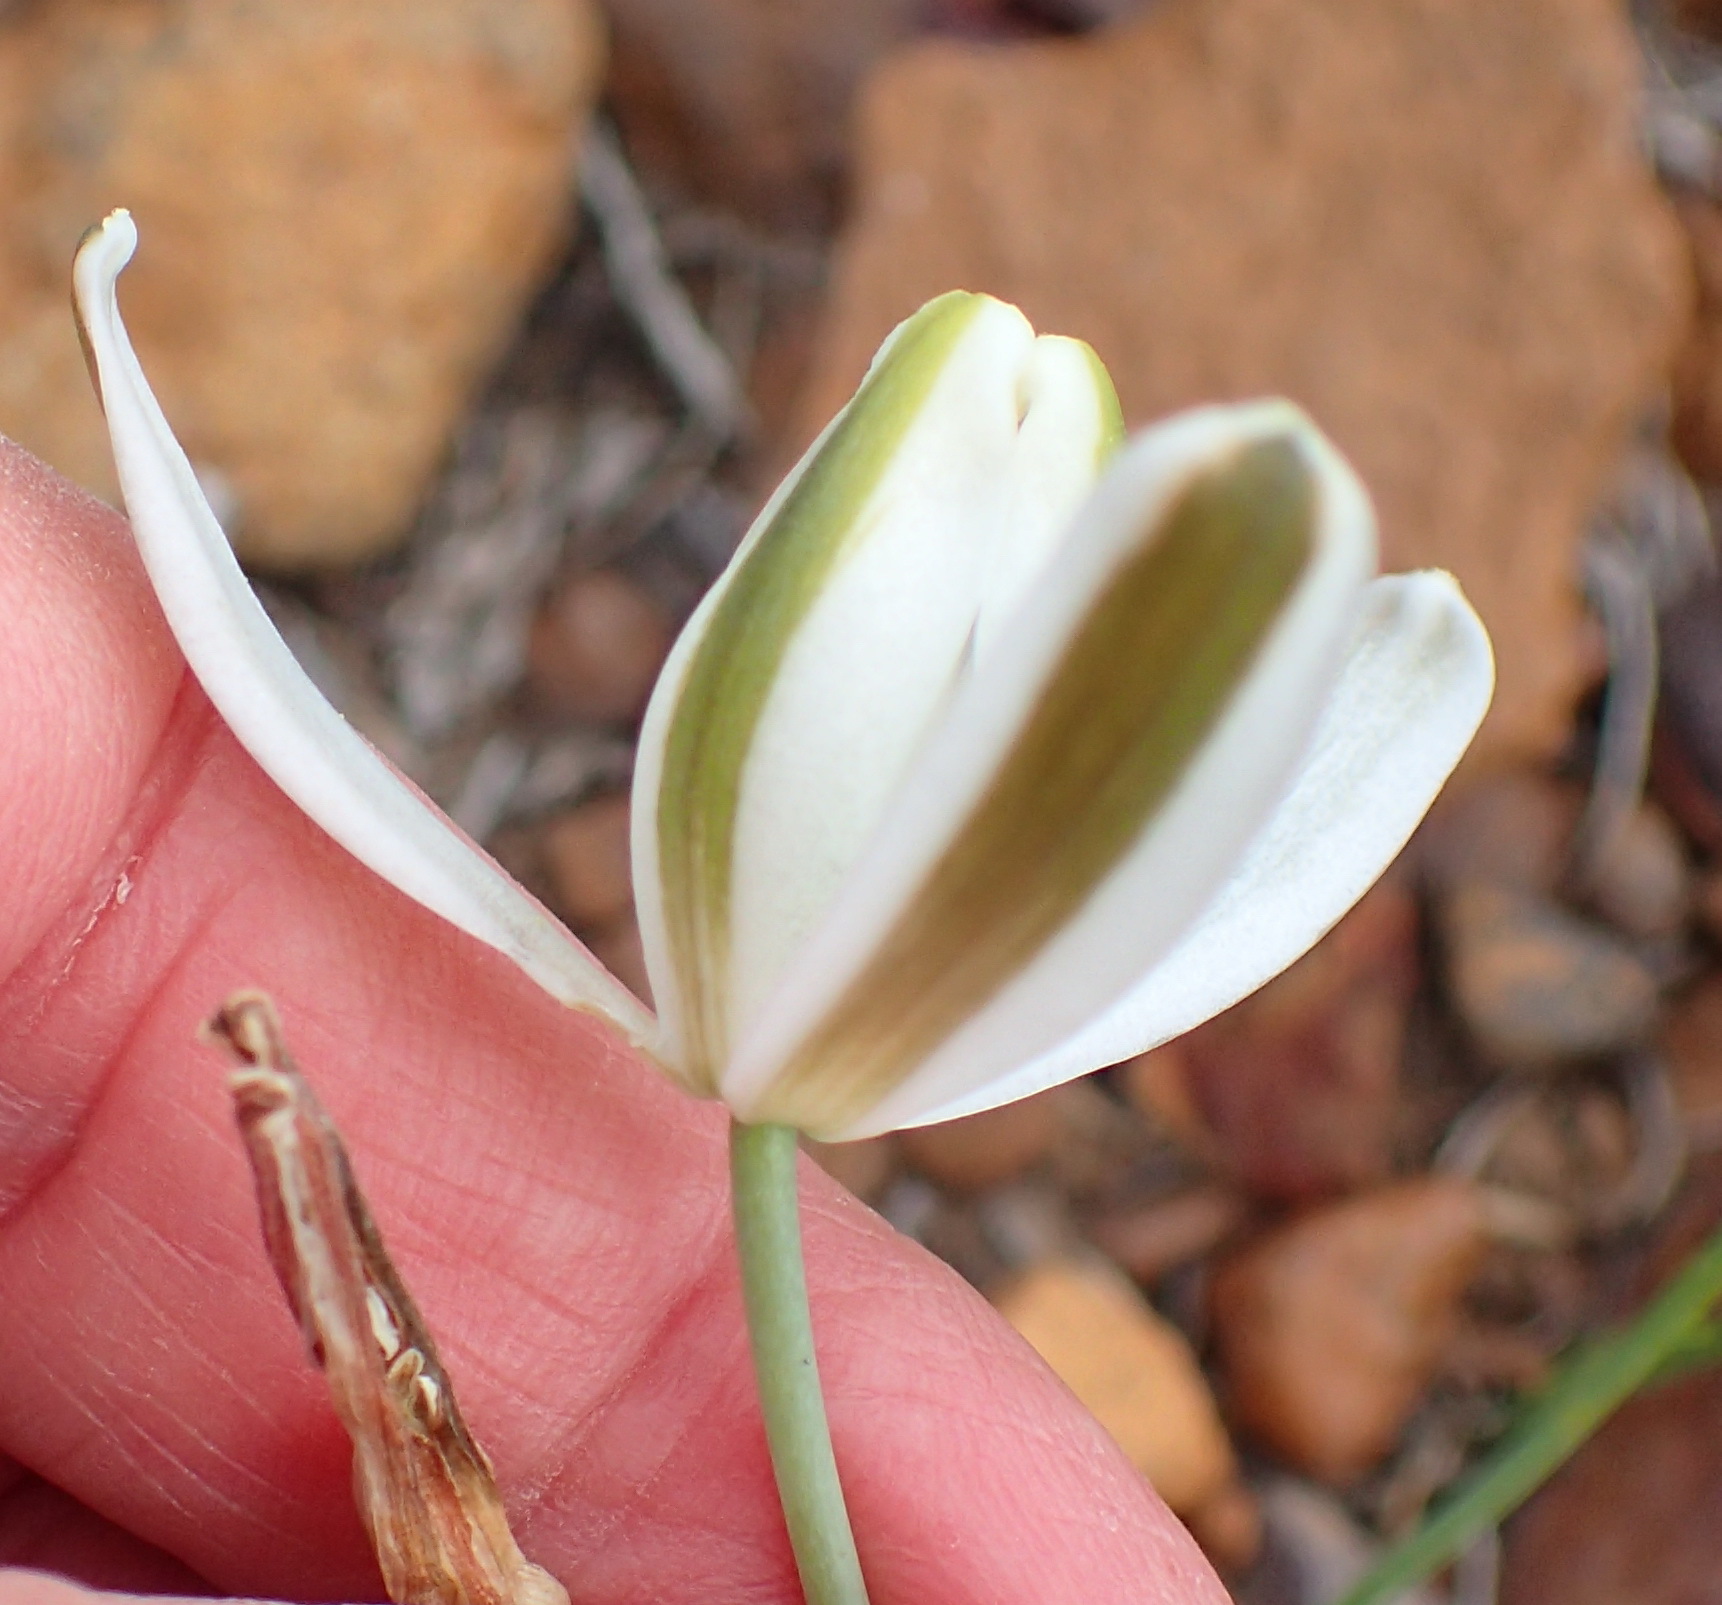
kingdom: Plantae
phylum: Tracheophyta
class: Liliopsida
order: Asparagales
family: Asparagaceae
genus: Albuca
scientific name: Albuca longipes
